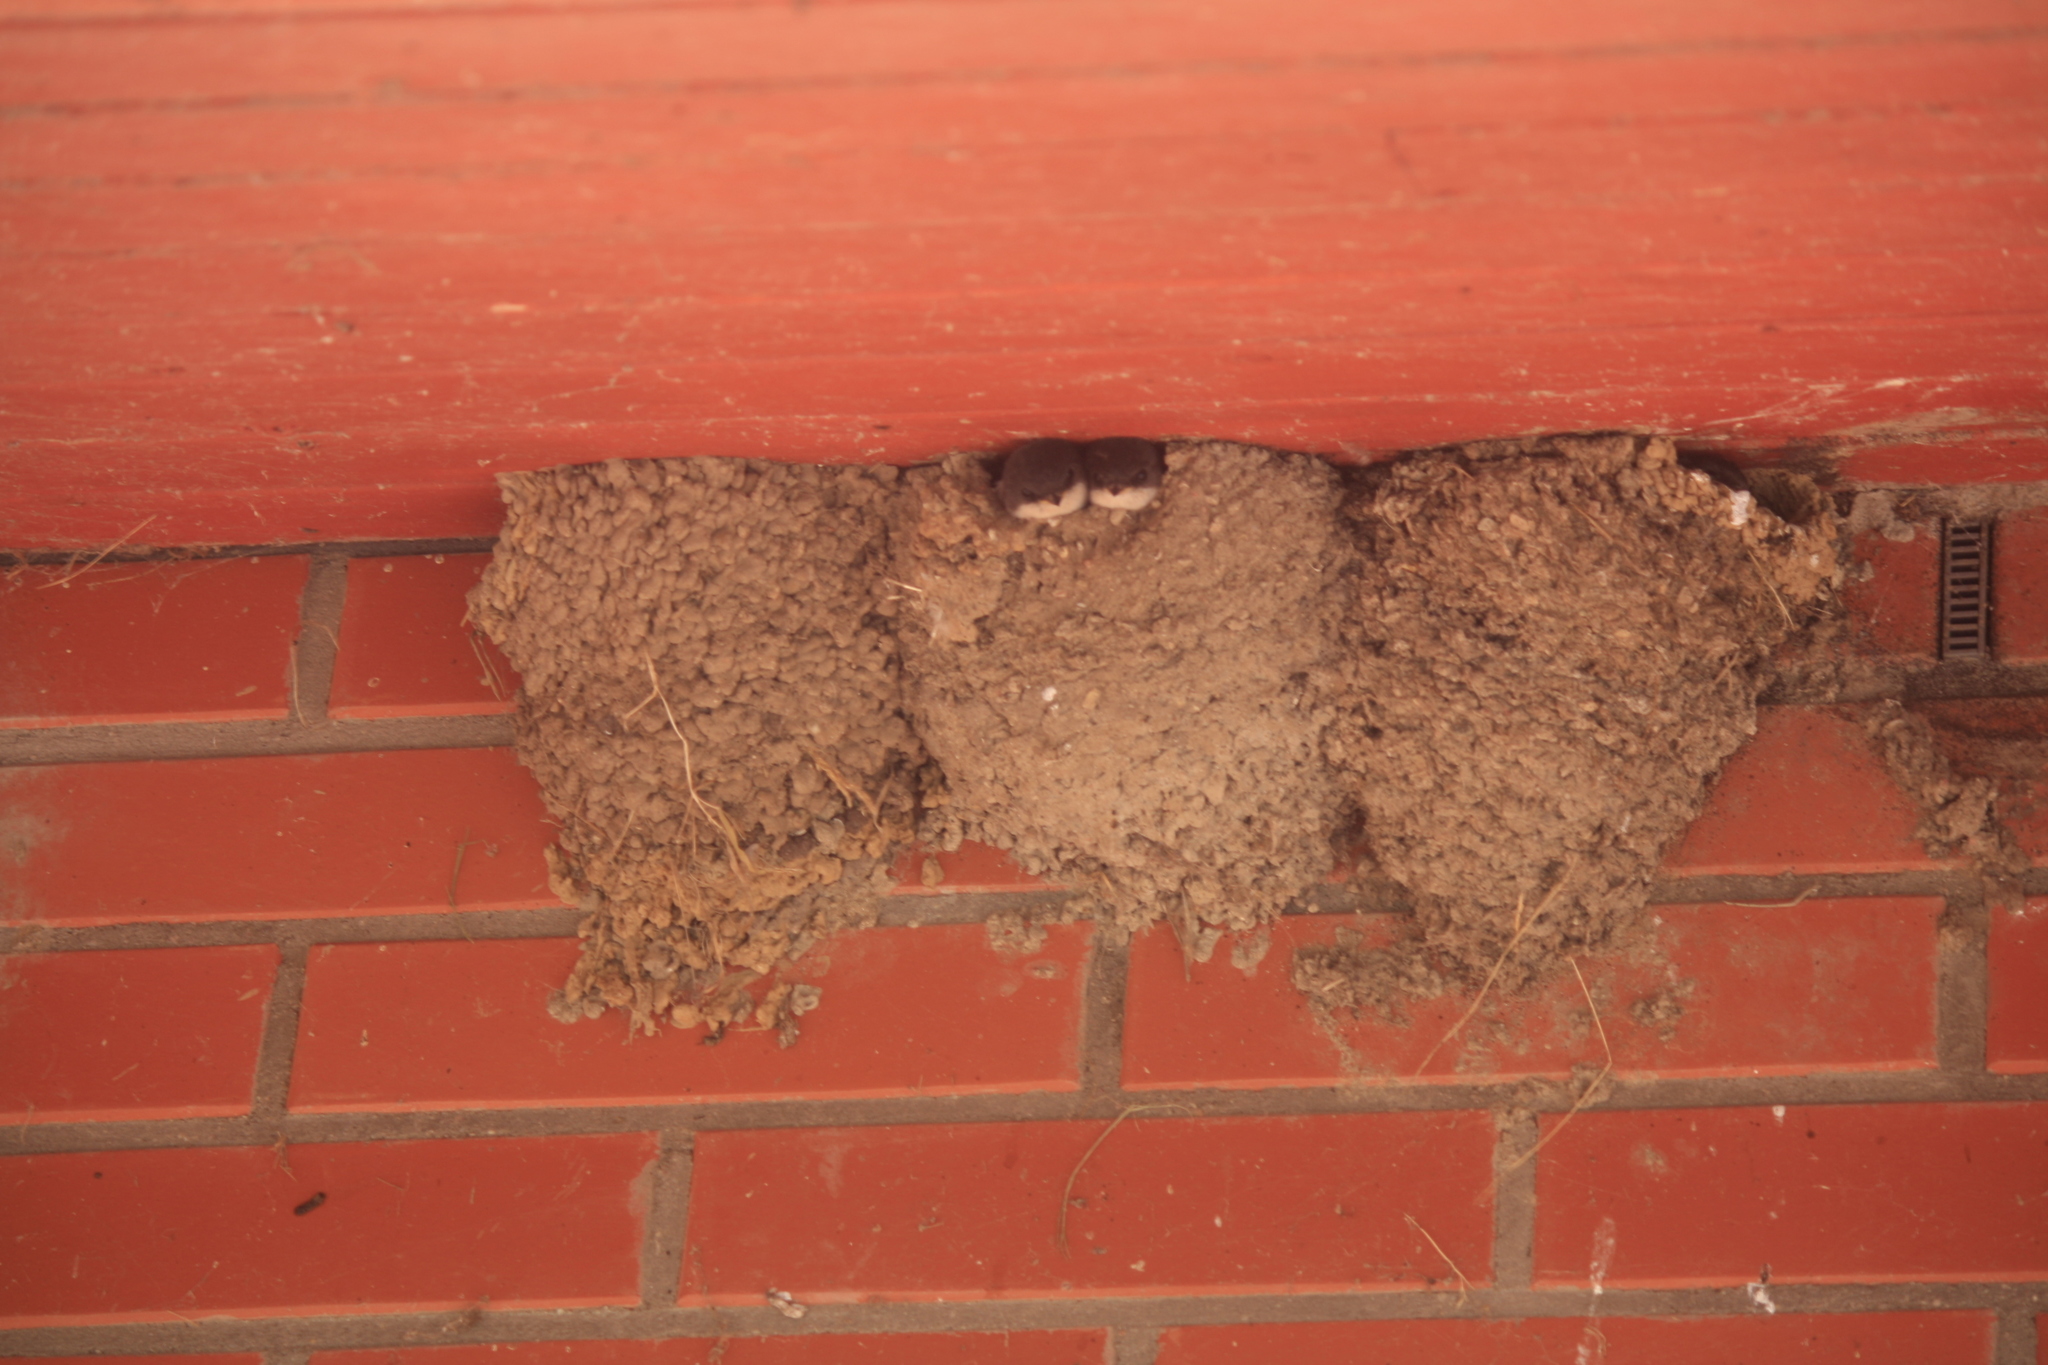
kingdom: Animalia
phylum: Chordata
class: Aves
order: Passeriformes
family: Hirundinidae
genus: Delichon
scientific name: Delichon urbicum
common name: Common house martin
